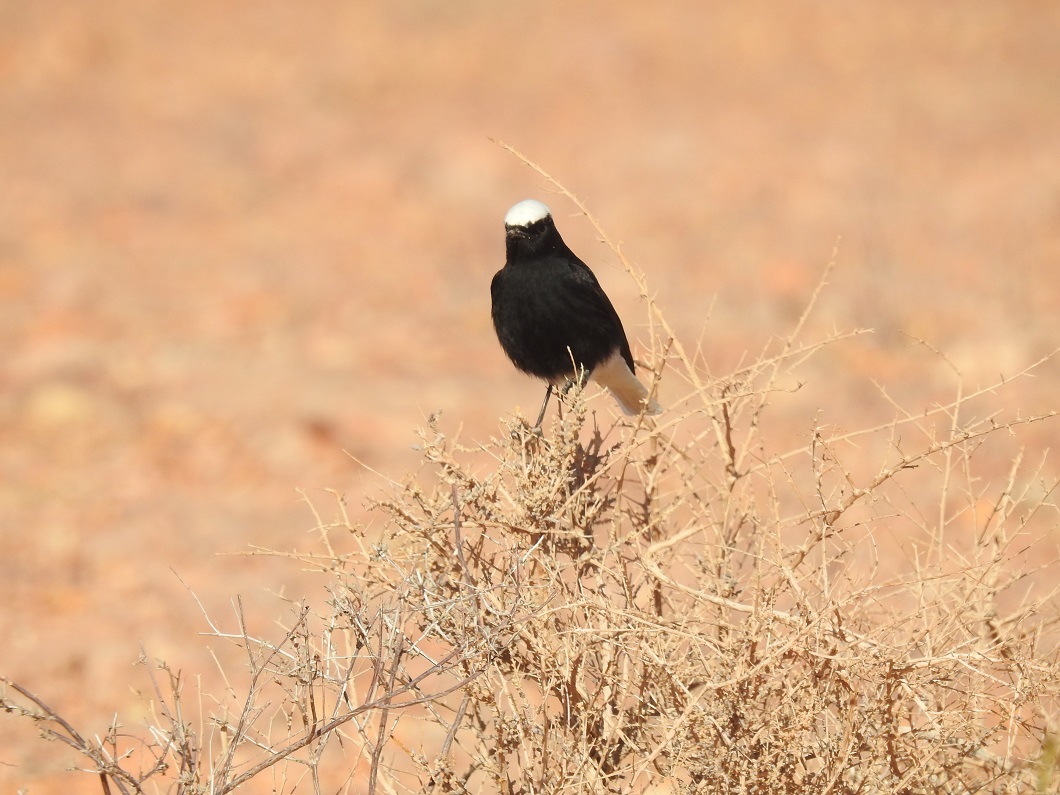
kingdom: Animalia
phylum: Chordata
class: Aves
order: Passeriformes
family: Muscicapidae
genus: Oenanthe
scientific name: Oenanthe leucopyga
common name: White-crowned wheatear
